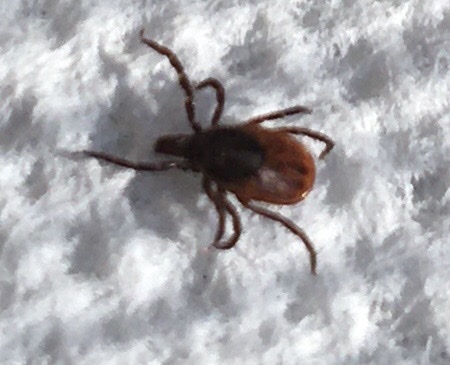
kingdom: Animalia
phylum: Arthropoda
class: Arachnida
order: Ixodida
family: Ixodidae
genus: Ixodes
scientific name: Ixodes scapularis
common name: Black legged tick
